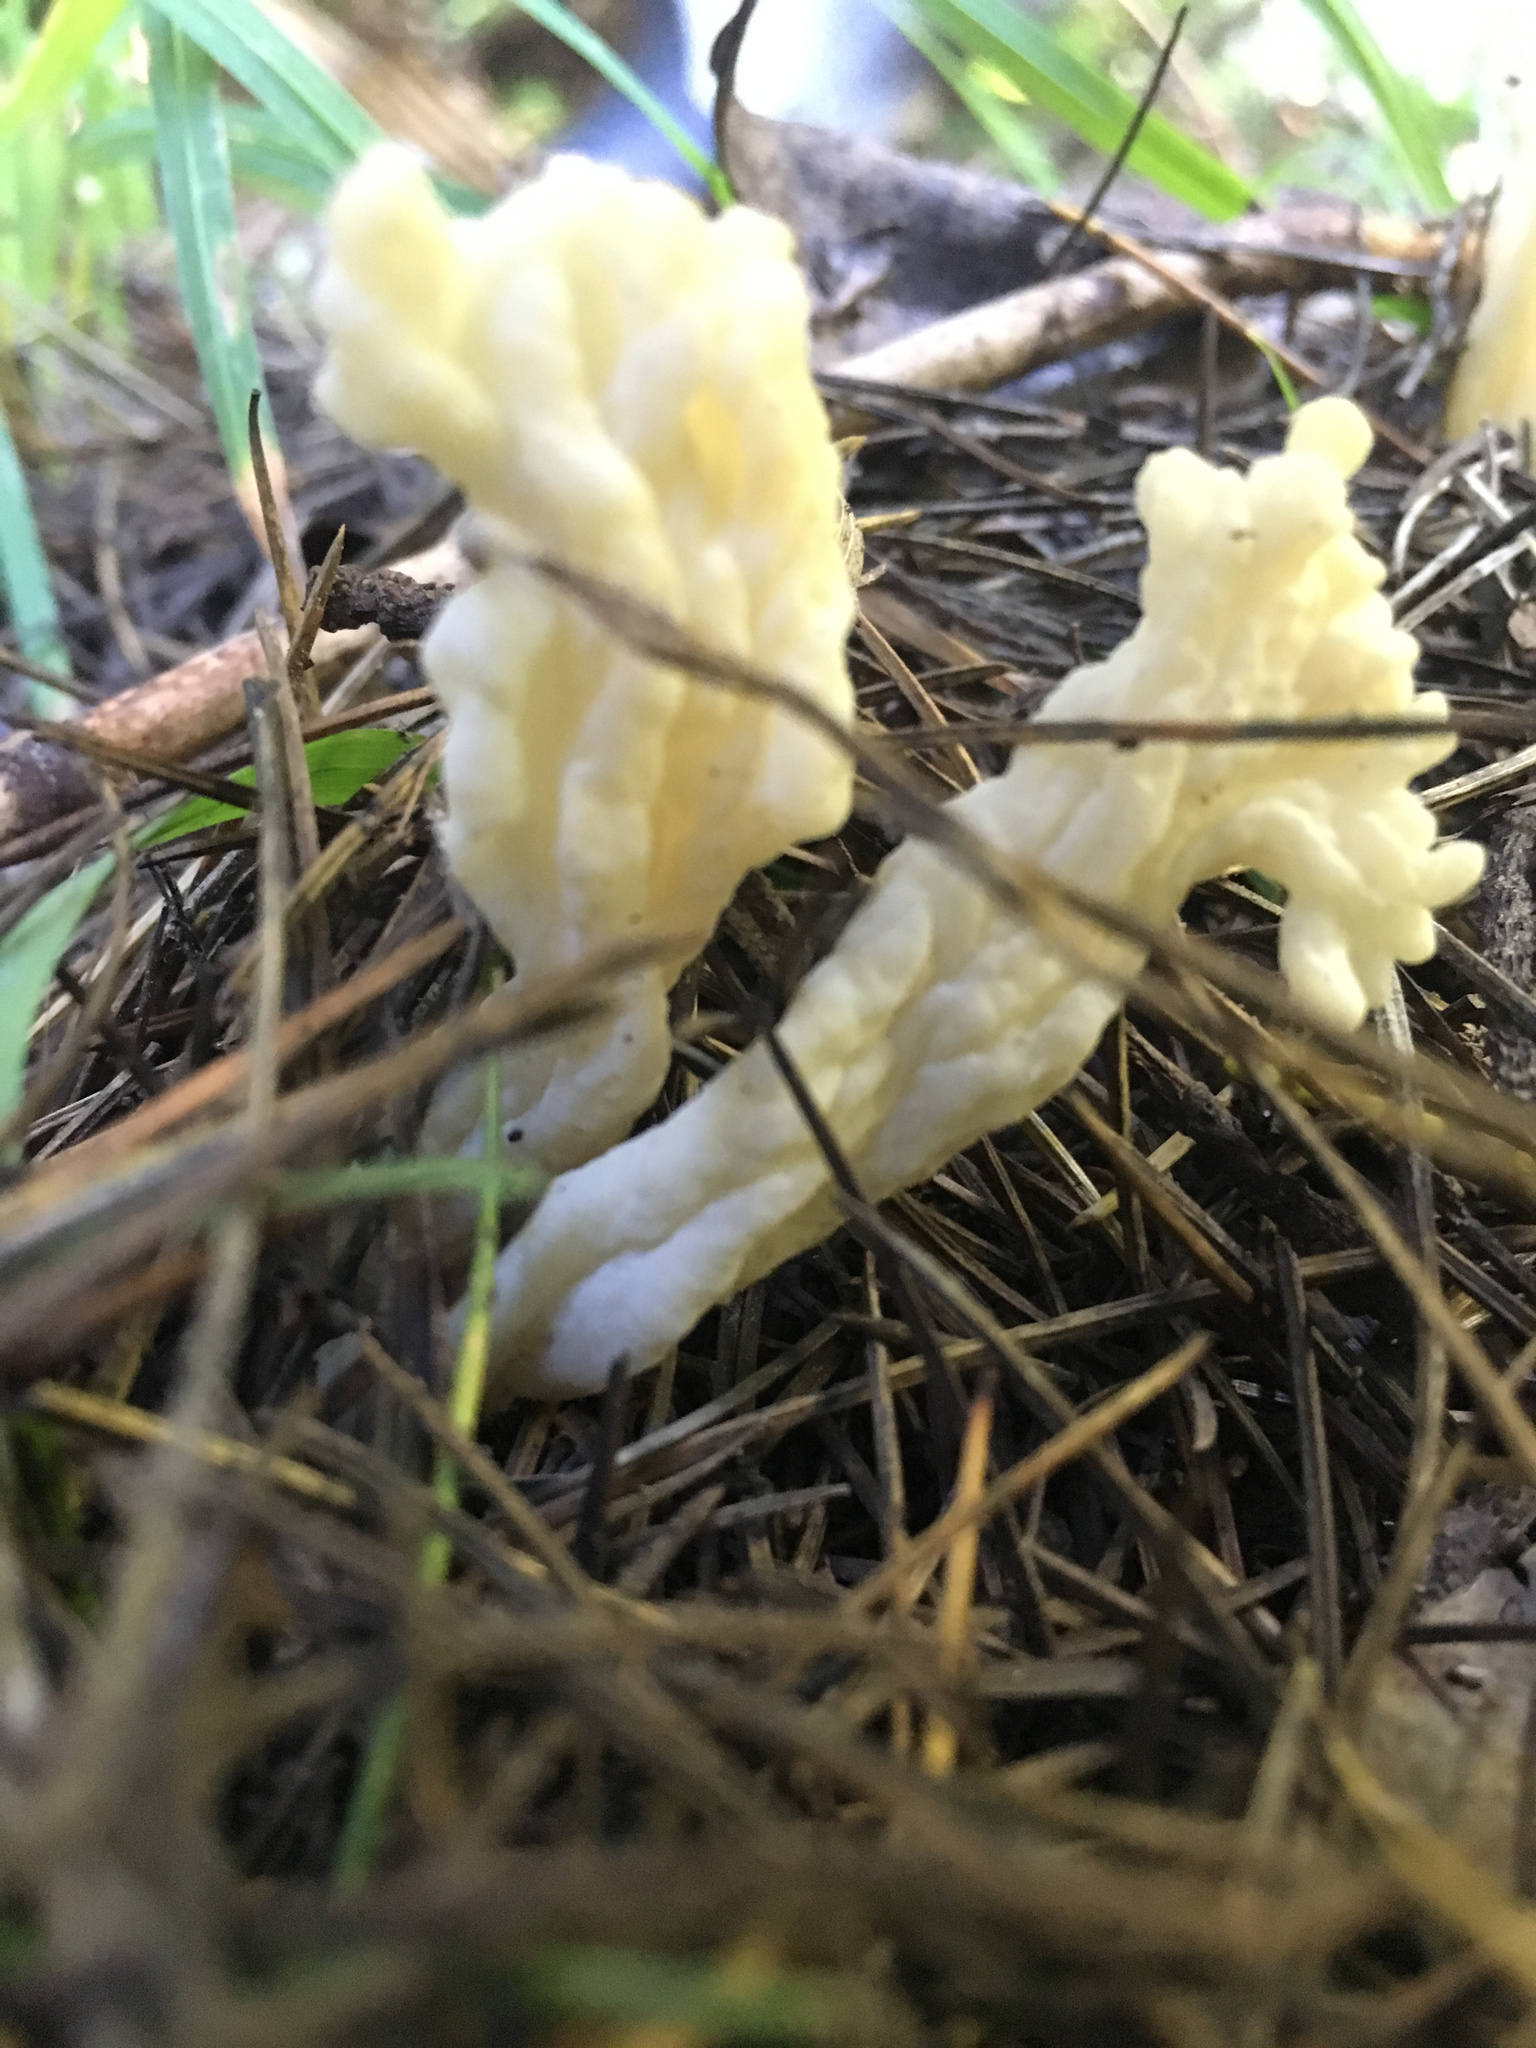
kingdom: Fungi
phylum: Basidiomycota
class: Agaricomycetes
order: Cantharellales
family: Hydnaceae
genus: Clavulina
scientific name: Clavulina rugosa
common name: Wrinkled club
